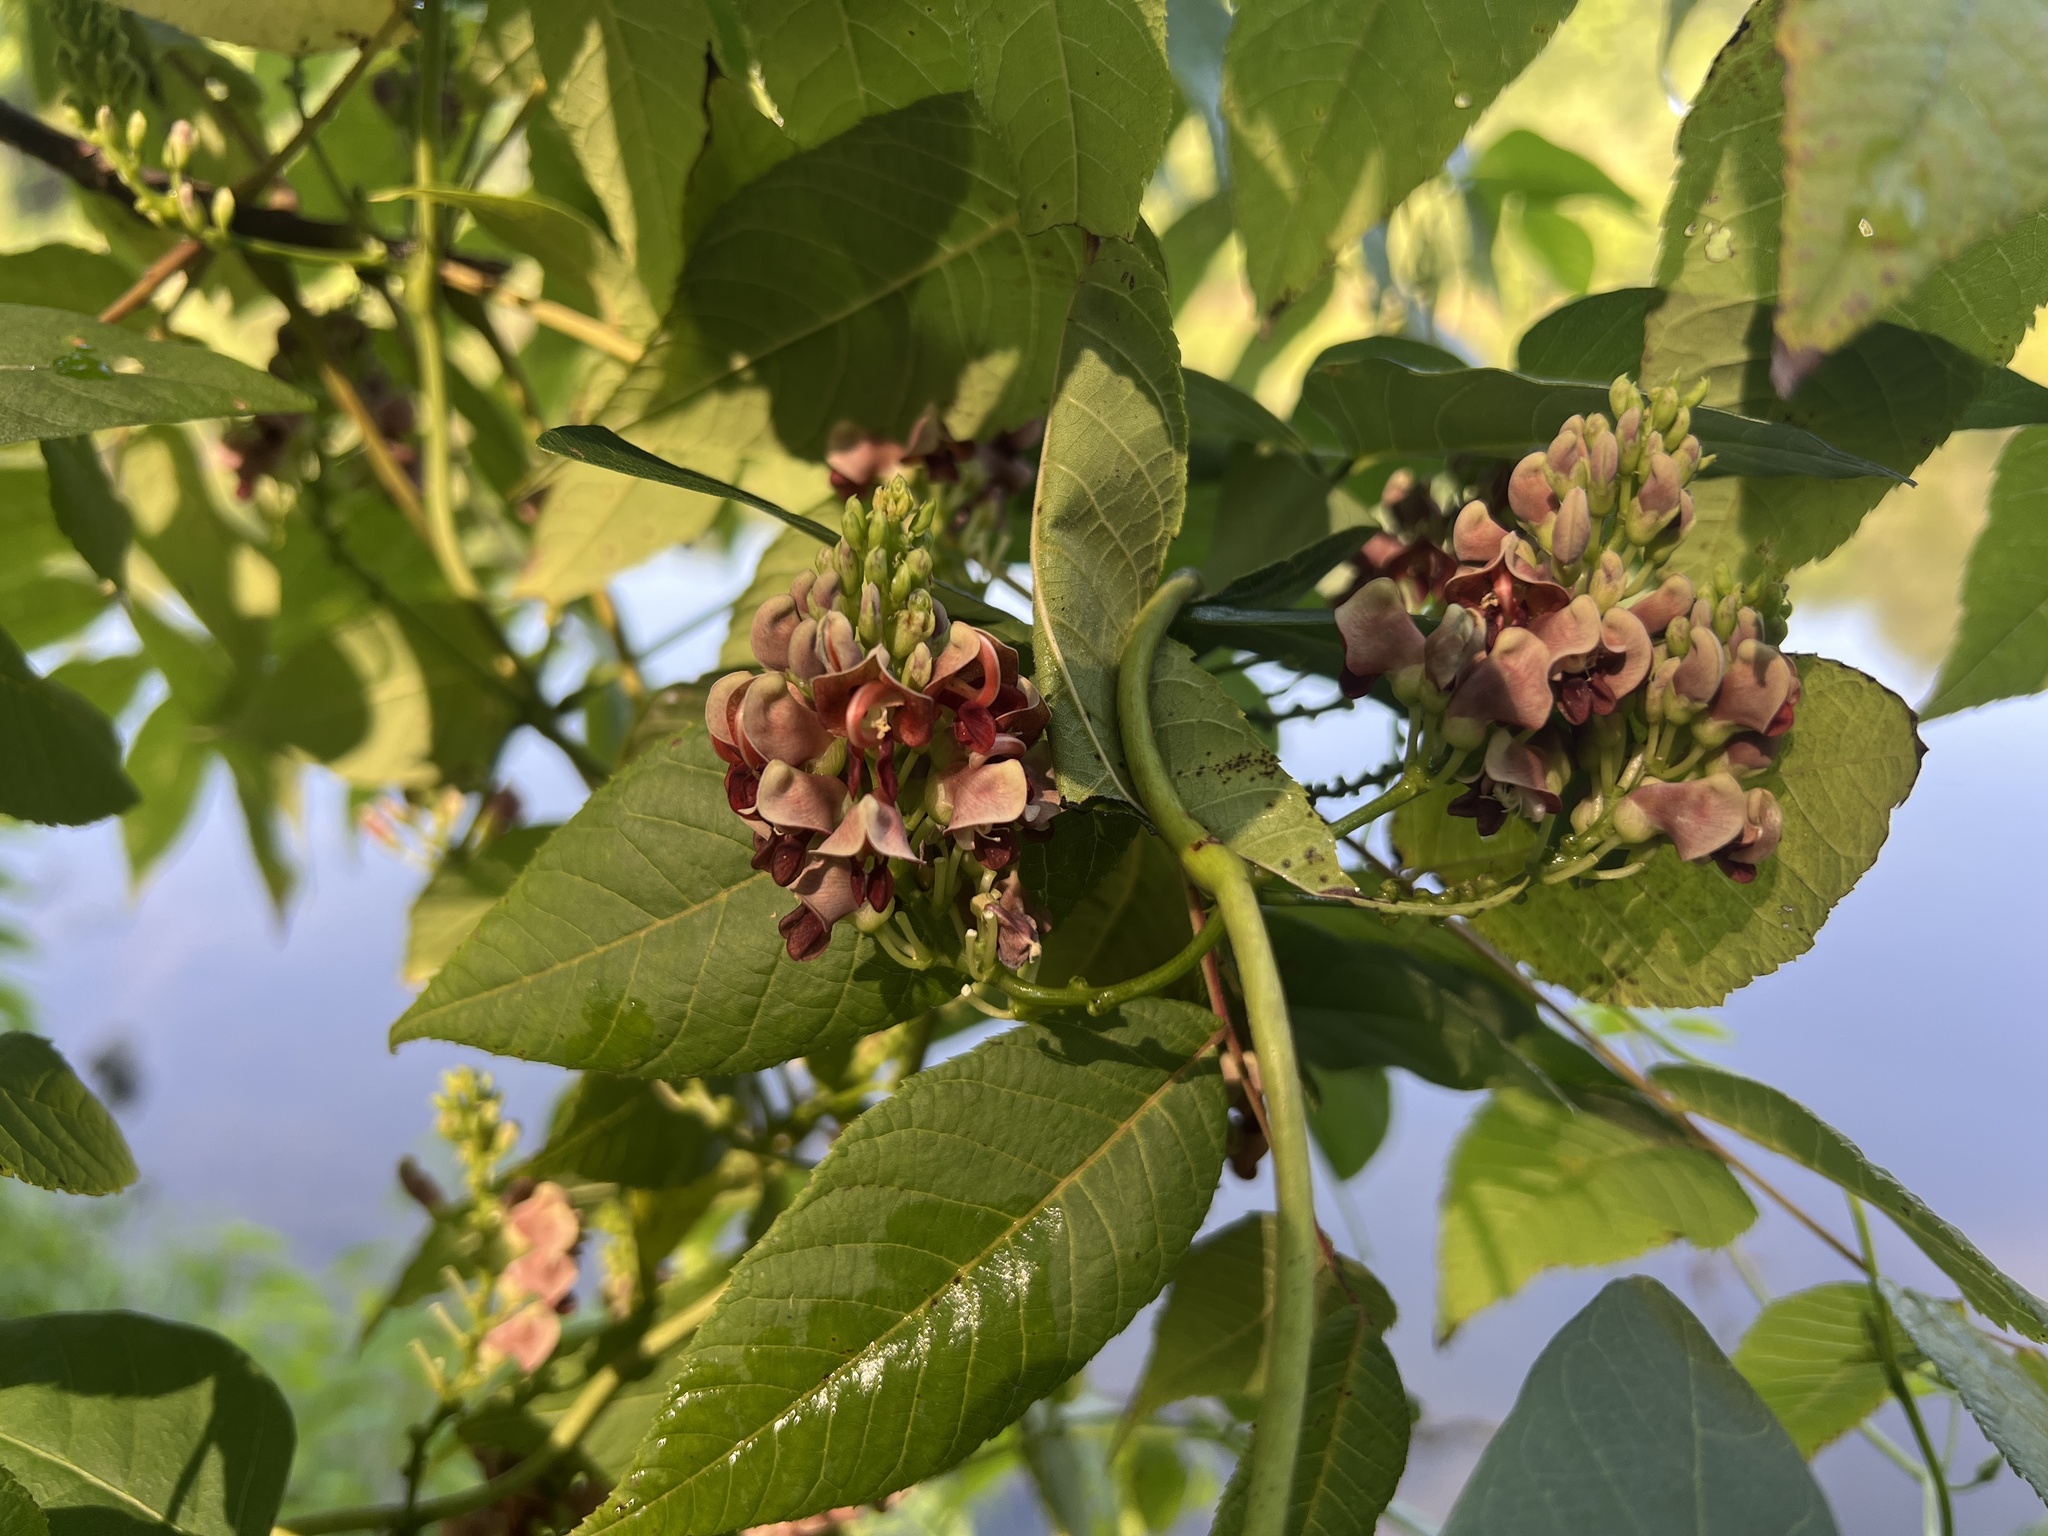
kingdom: Plantae
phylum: Tracheophyta
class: Magnoliopsida
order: Fabales
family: Fabaceae
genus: Apios
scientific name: Apios americana
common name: American potato-bean
